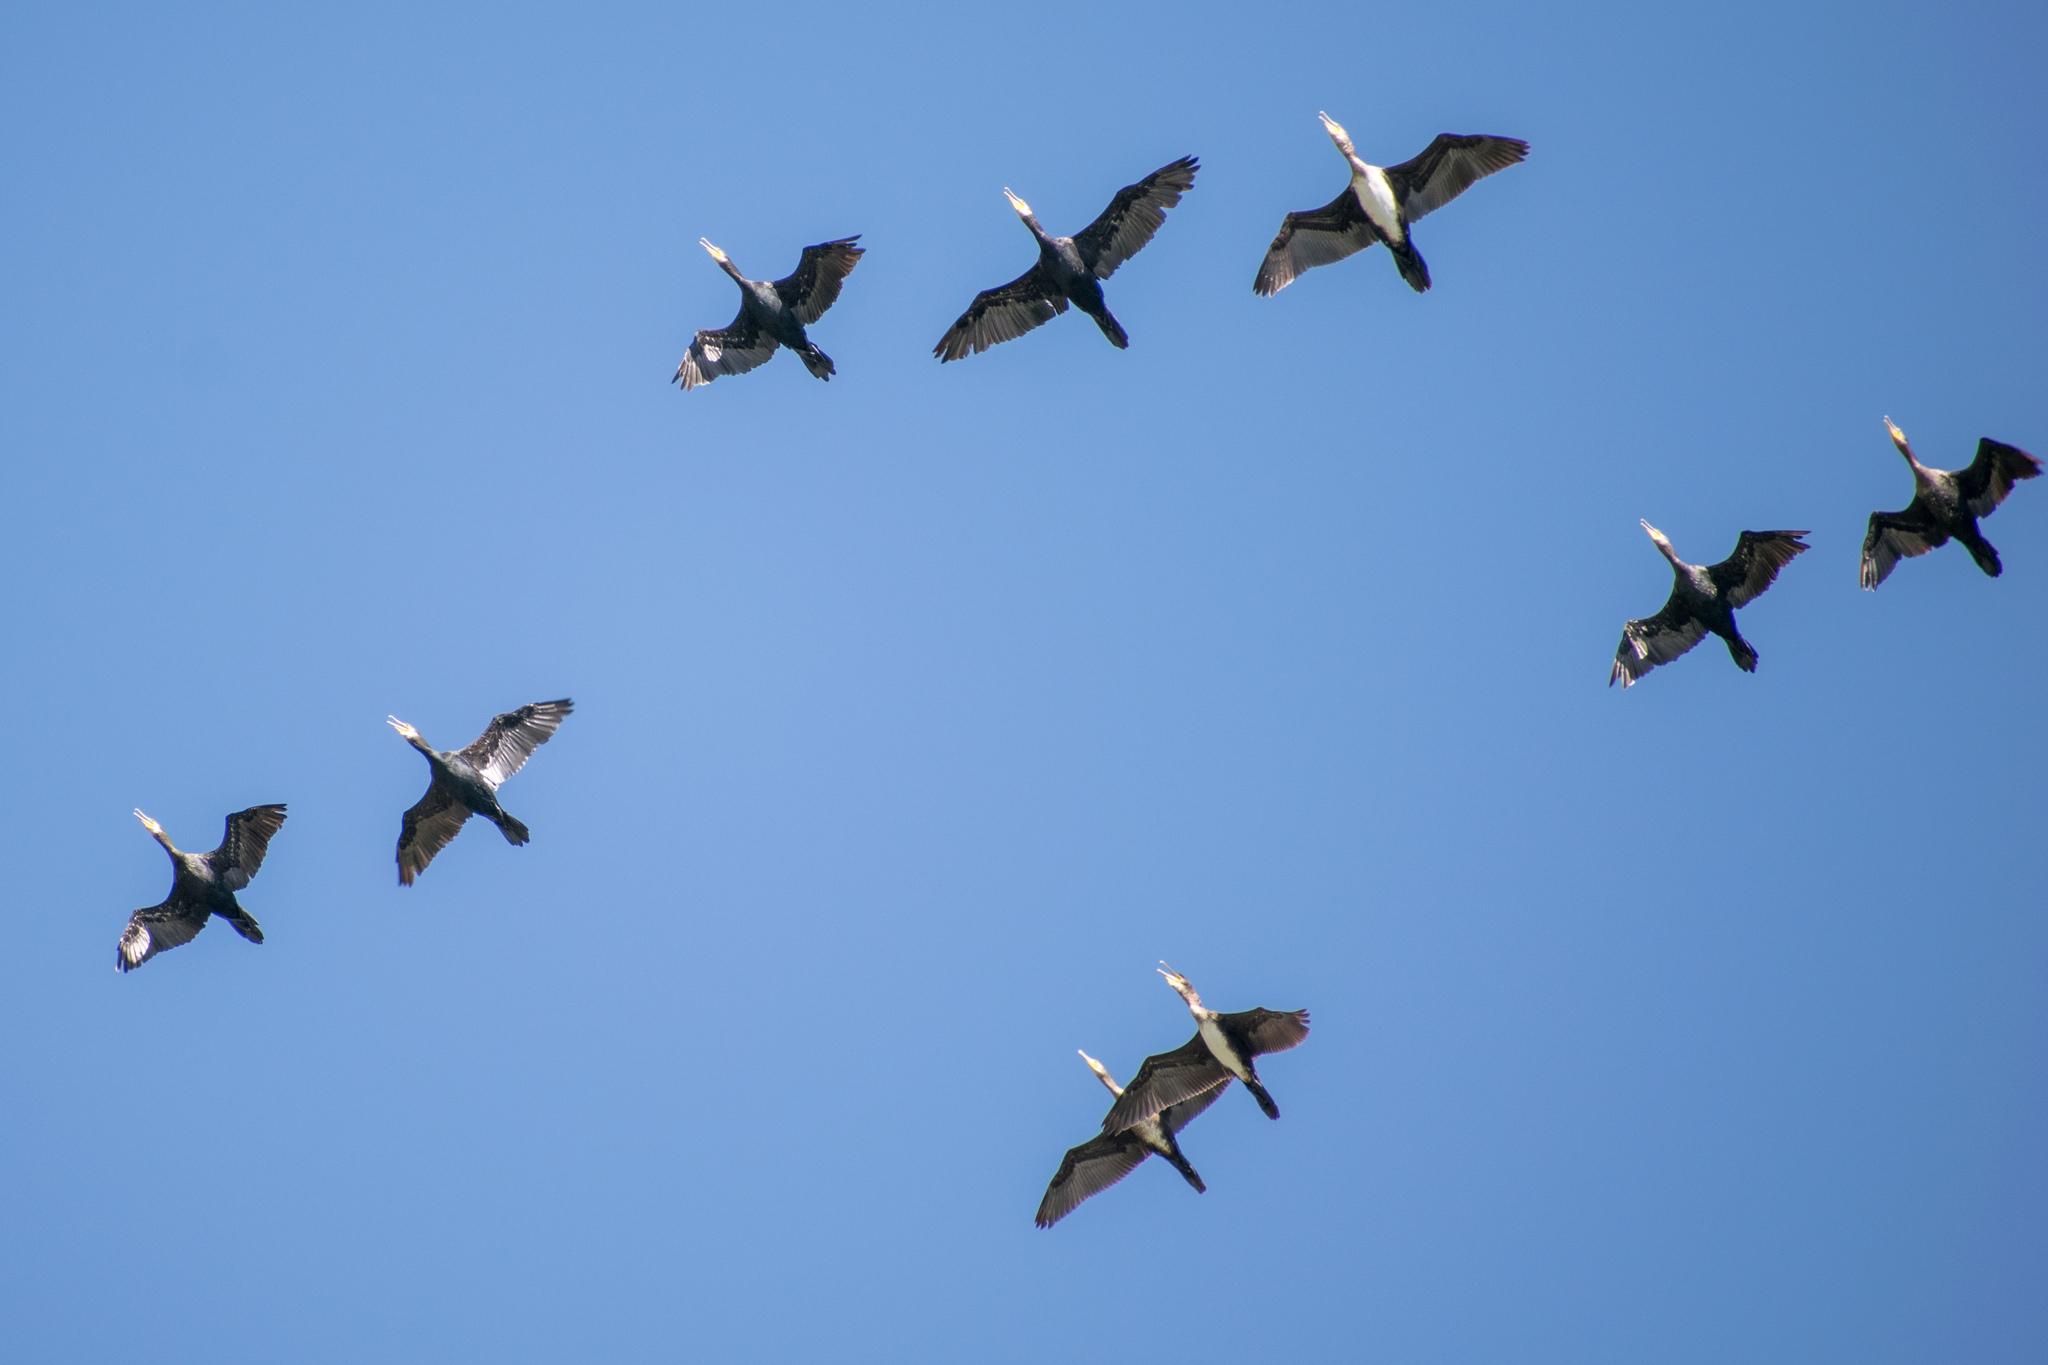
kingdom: Animalia
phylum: Chordata
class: Aves
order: Suliformes
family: Phalacrocoracidae
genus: Phalacrocorax
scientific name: Phalacrocorax carbo
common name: Great cormorant
